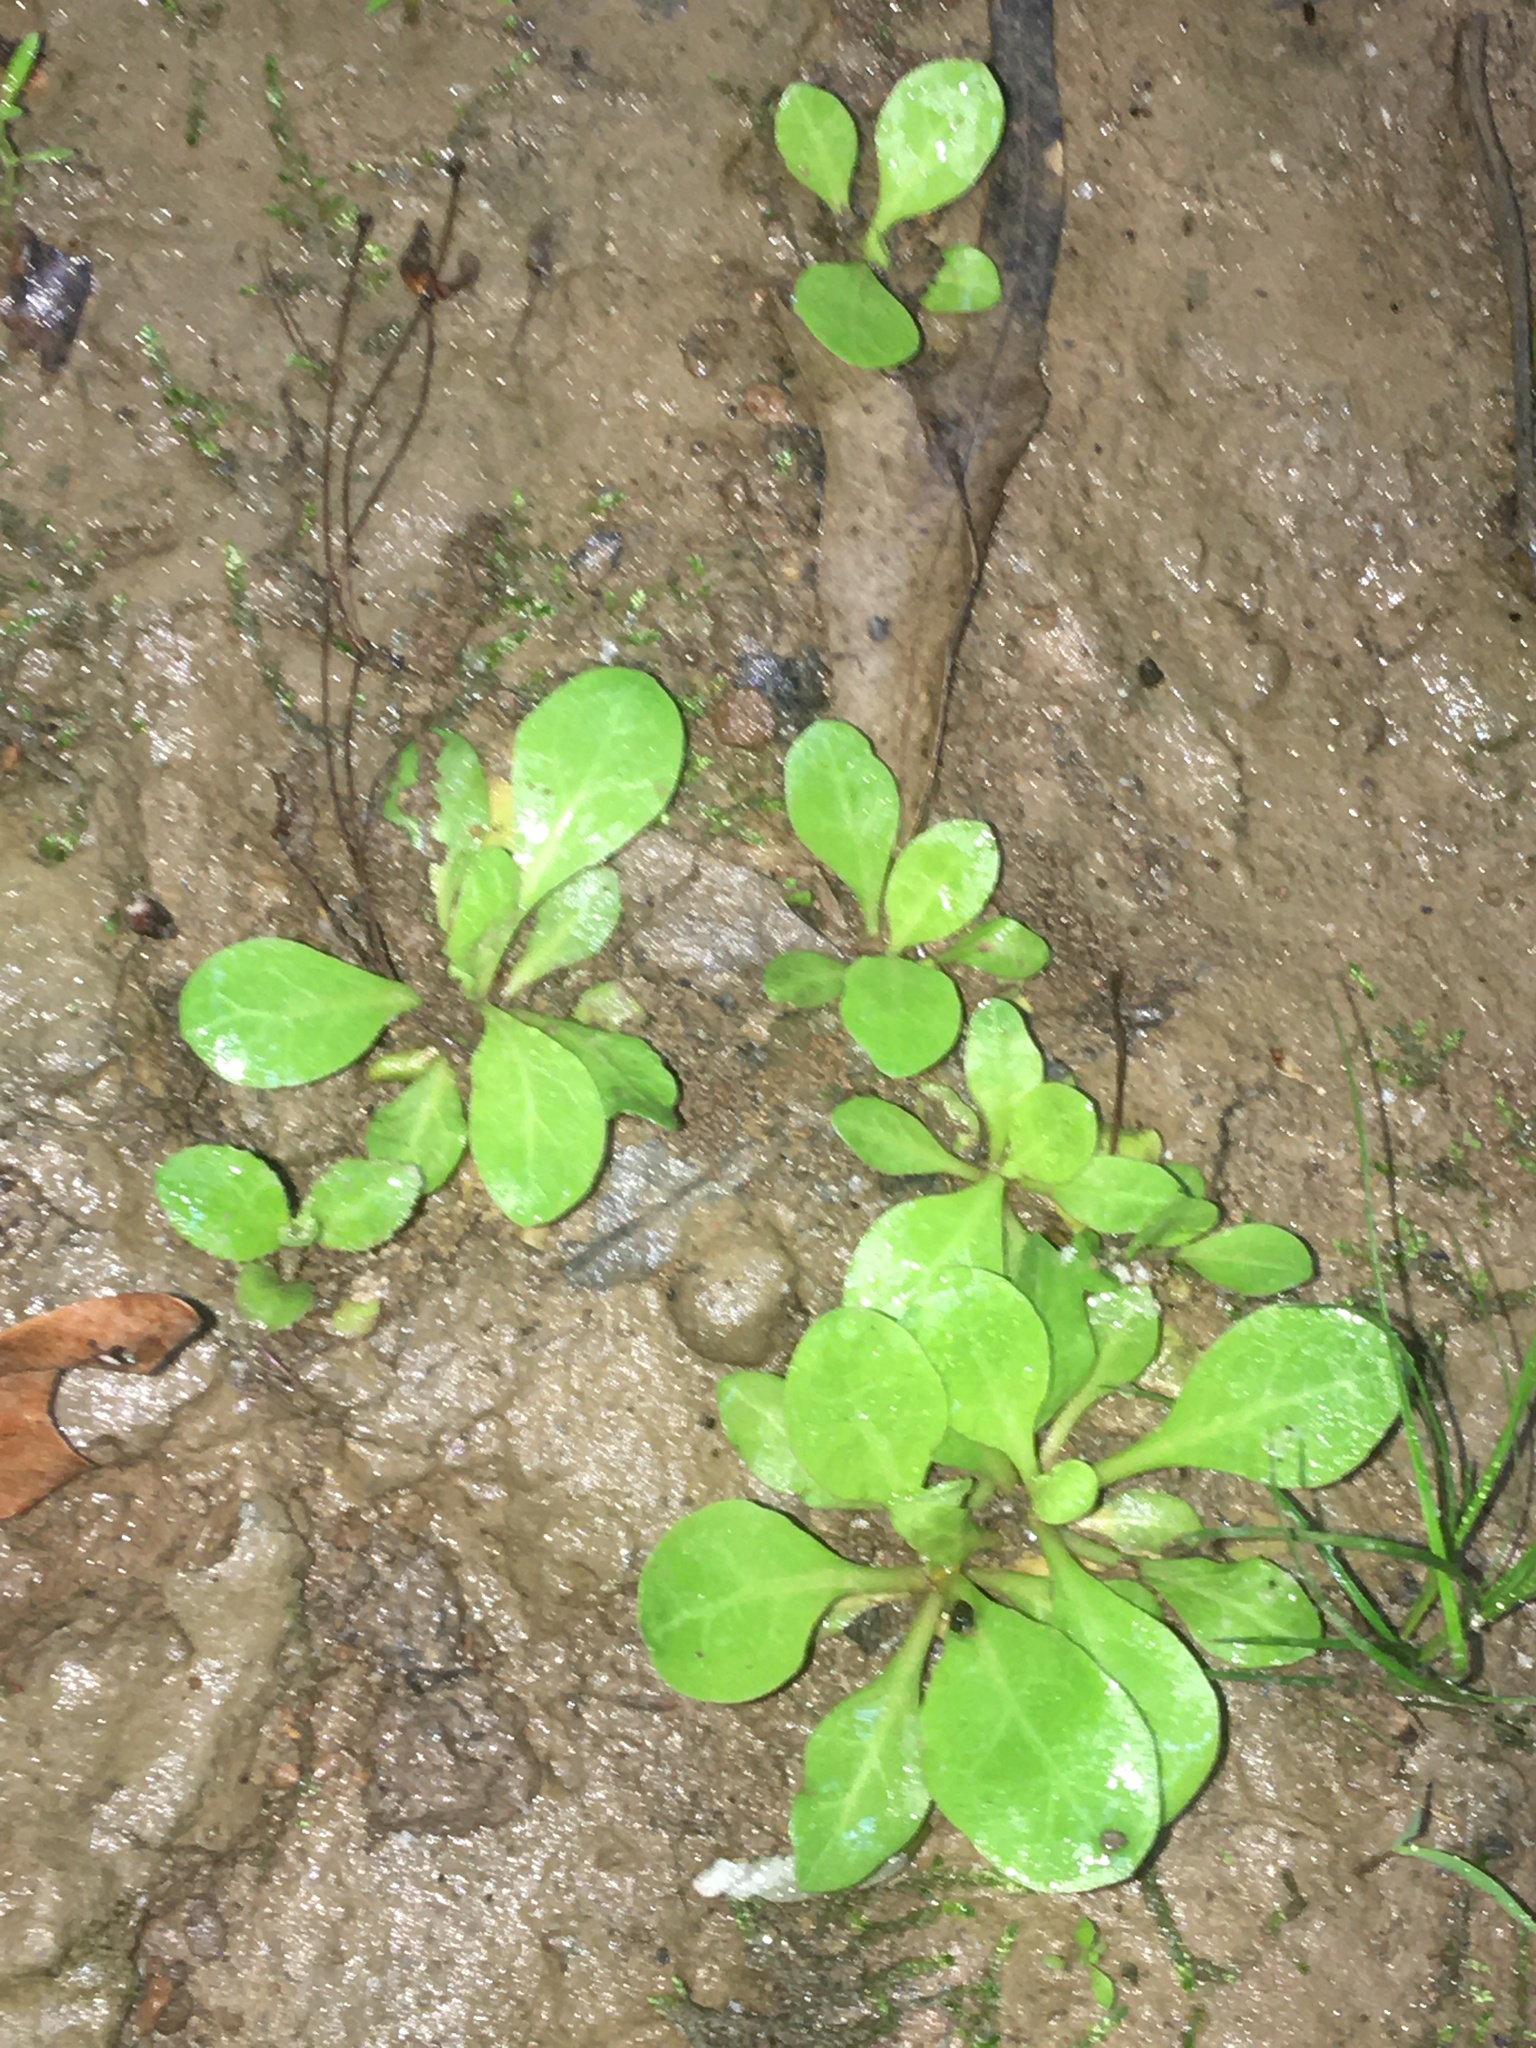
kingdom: Plantae
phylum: Tracheophyta
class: Magnoliopsida
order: Ericales
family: Primulaceae
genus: Samolus
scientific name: Samolus parviflorus
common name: False water pimpernel
